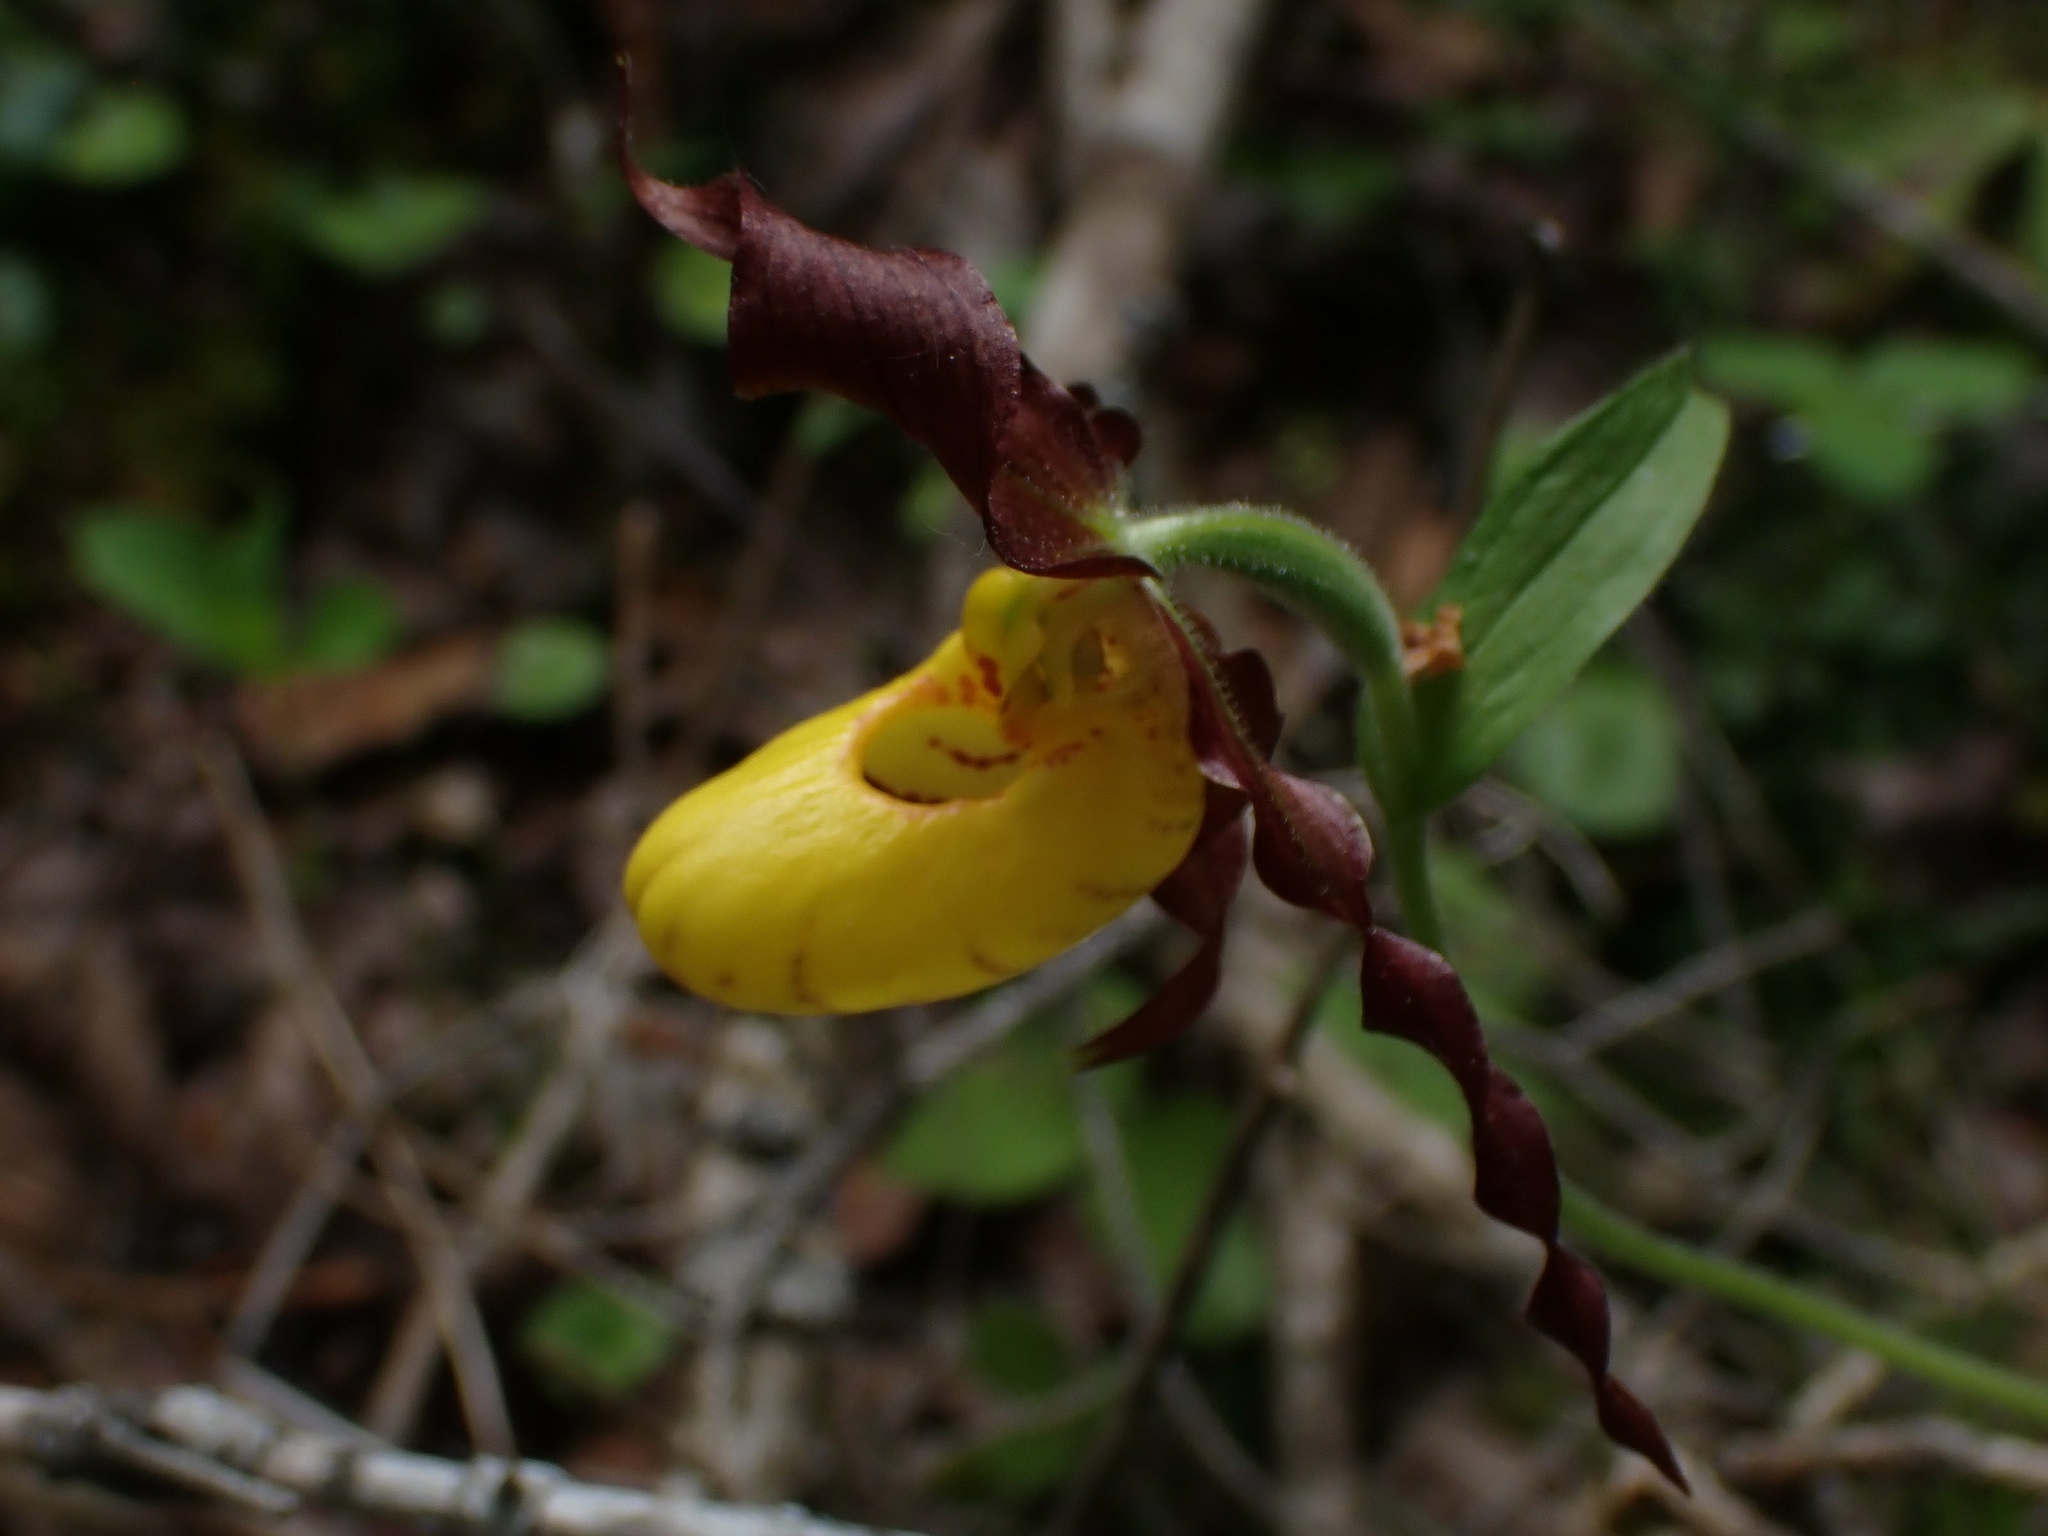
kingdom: Plantae
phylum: Tracheophyta
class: Liliopsida
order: Asparagales
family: Orchidaceae
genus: Cypripedium
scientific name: Cypripedium parviflorum
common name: American yellow lady's-slipper
